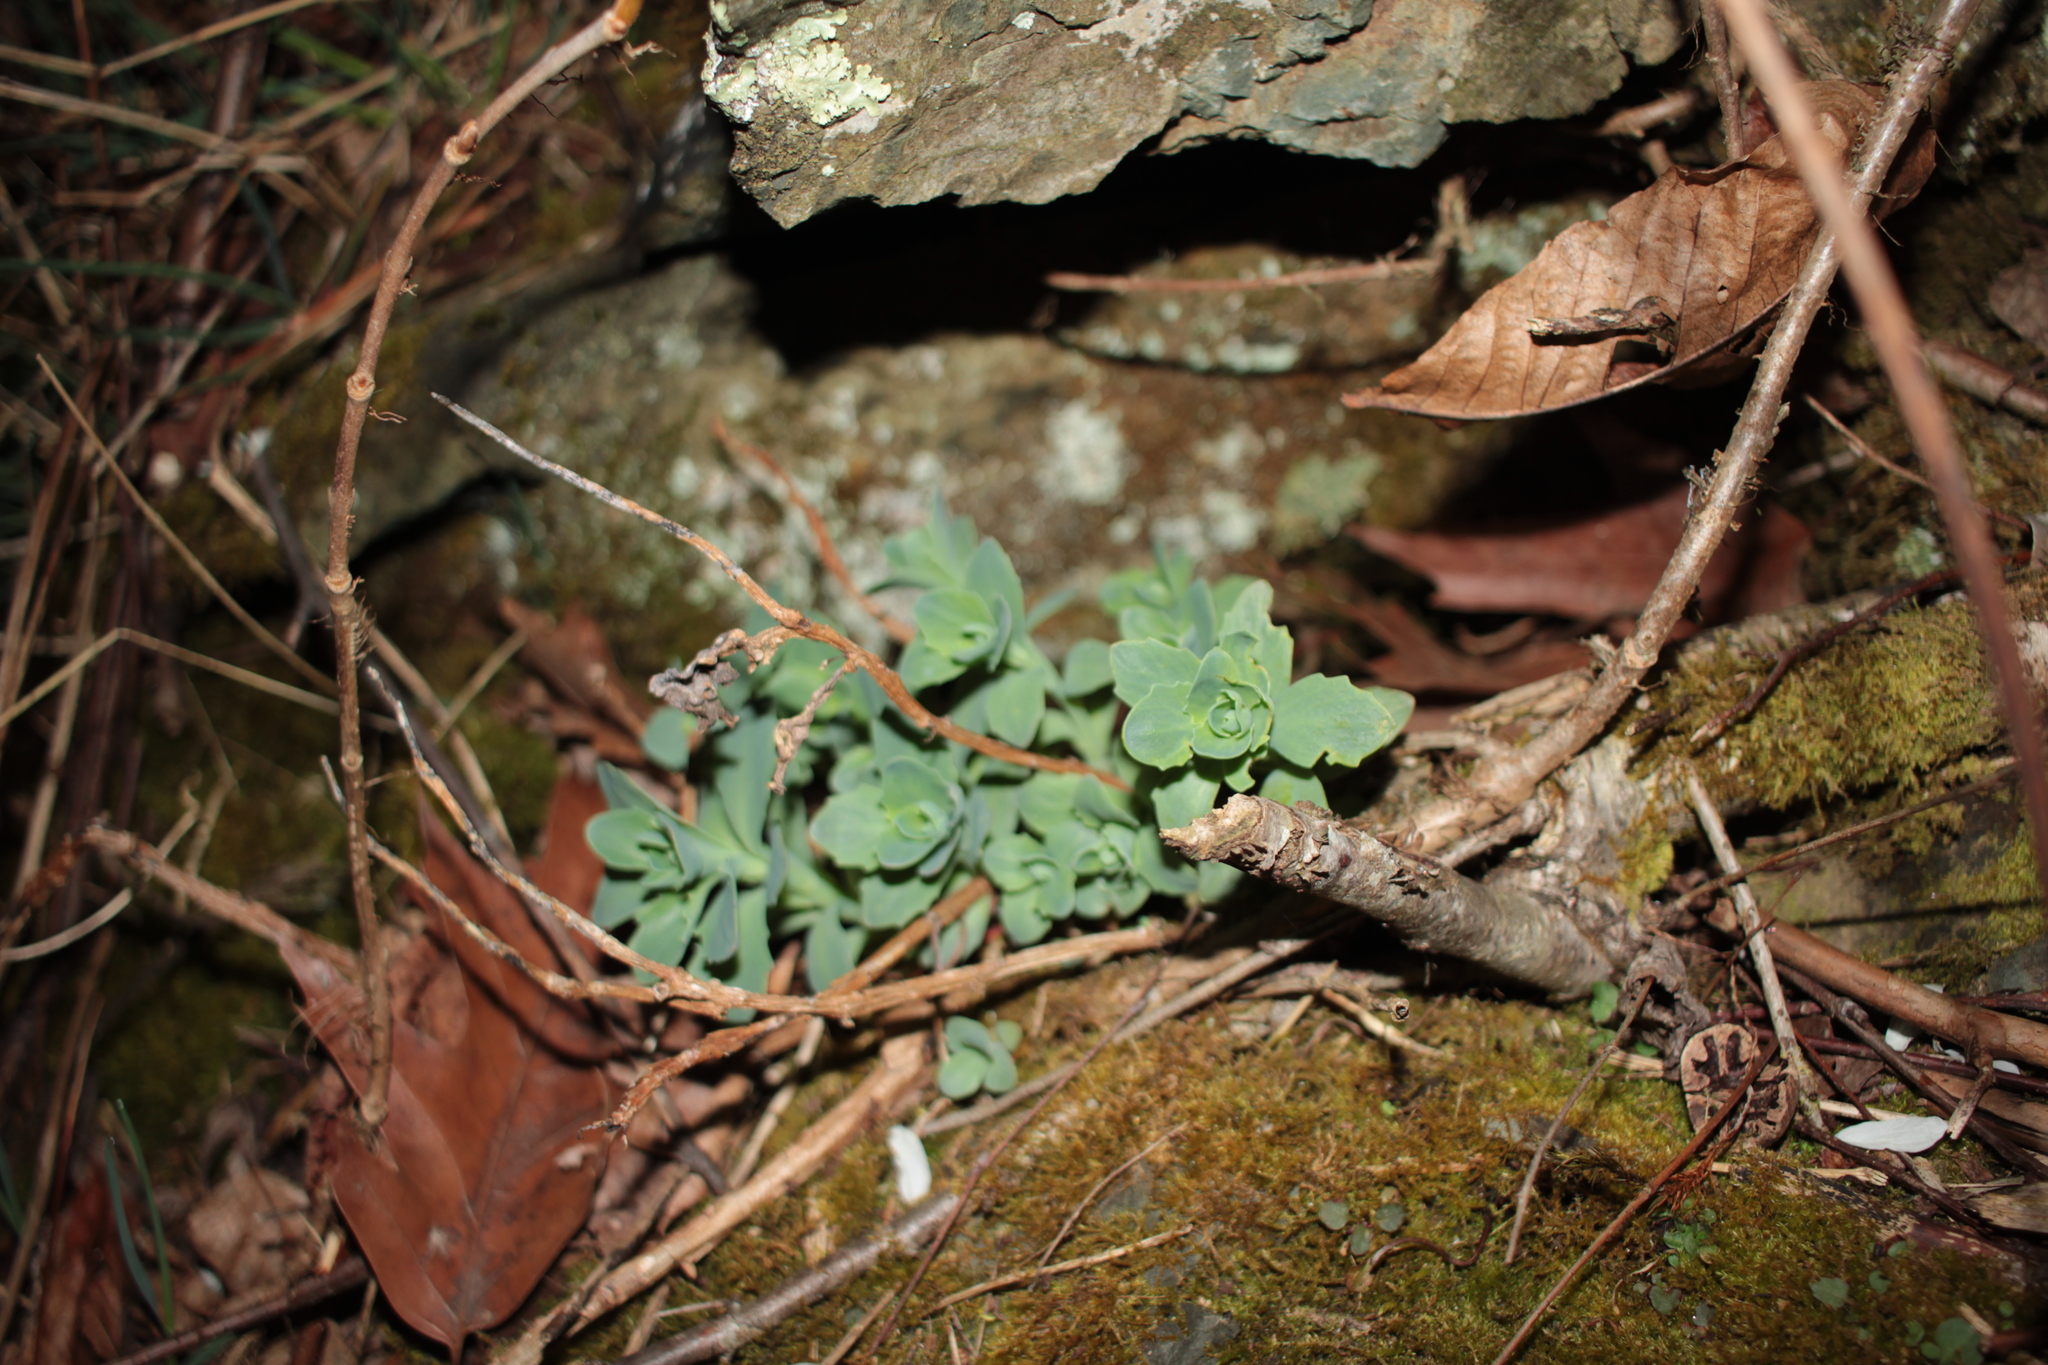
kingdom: Plantae
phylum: Tracheophyta
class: Magnoliopsida
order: Saxifragales
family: Crassulaceae
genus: Hylotelephium
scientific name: Hylotelephium telephioides
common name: Allegheny stonecrop
